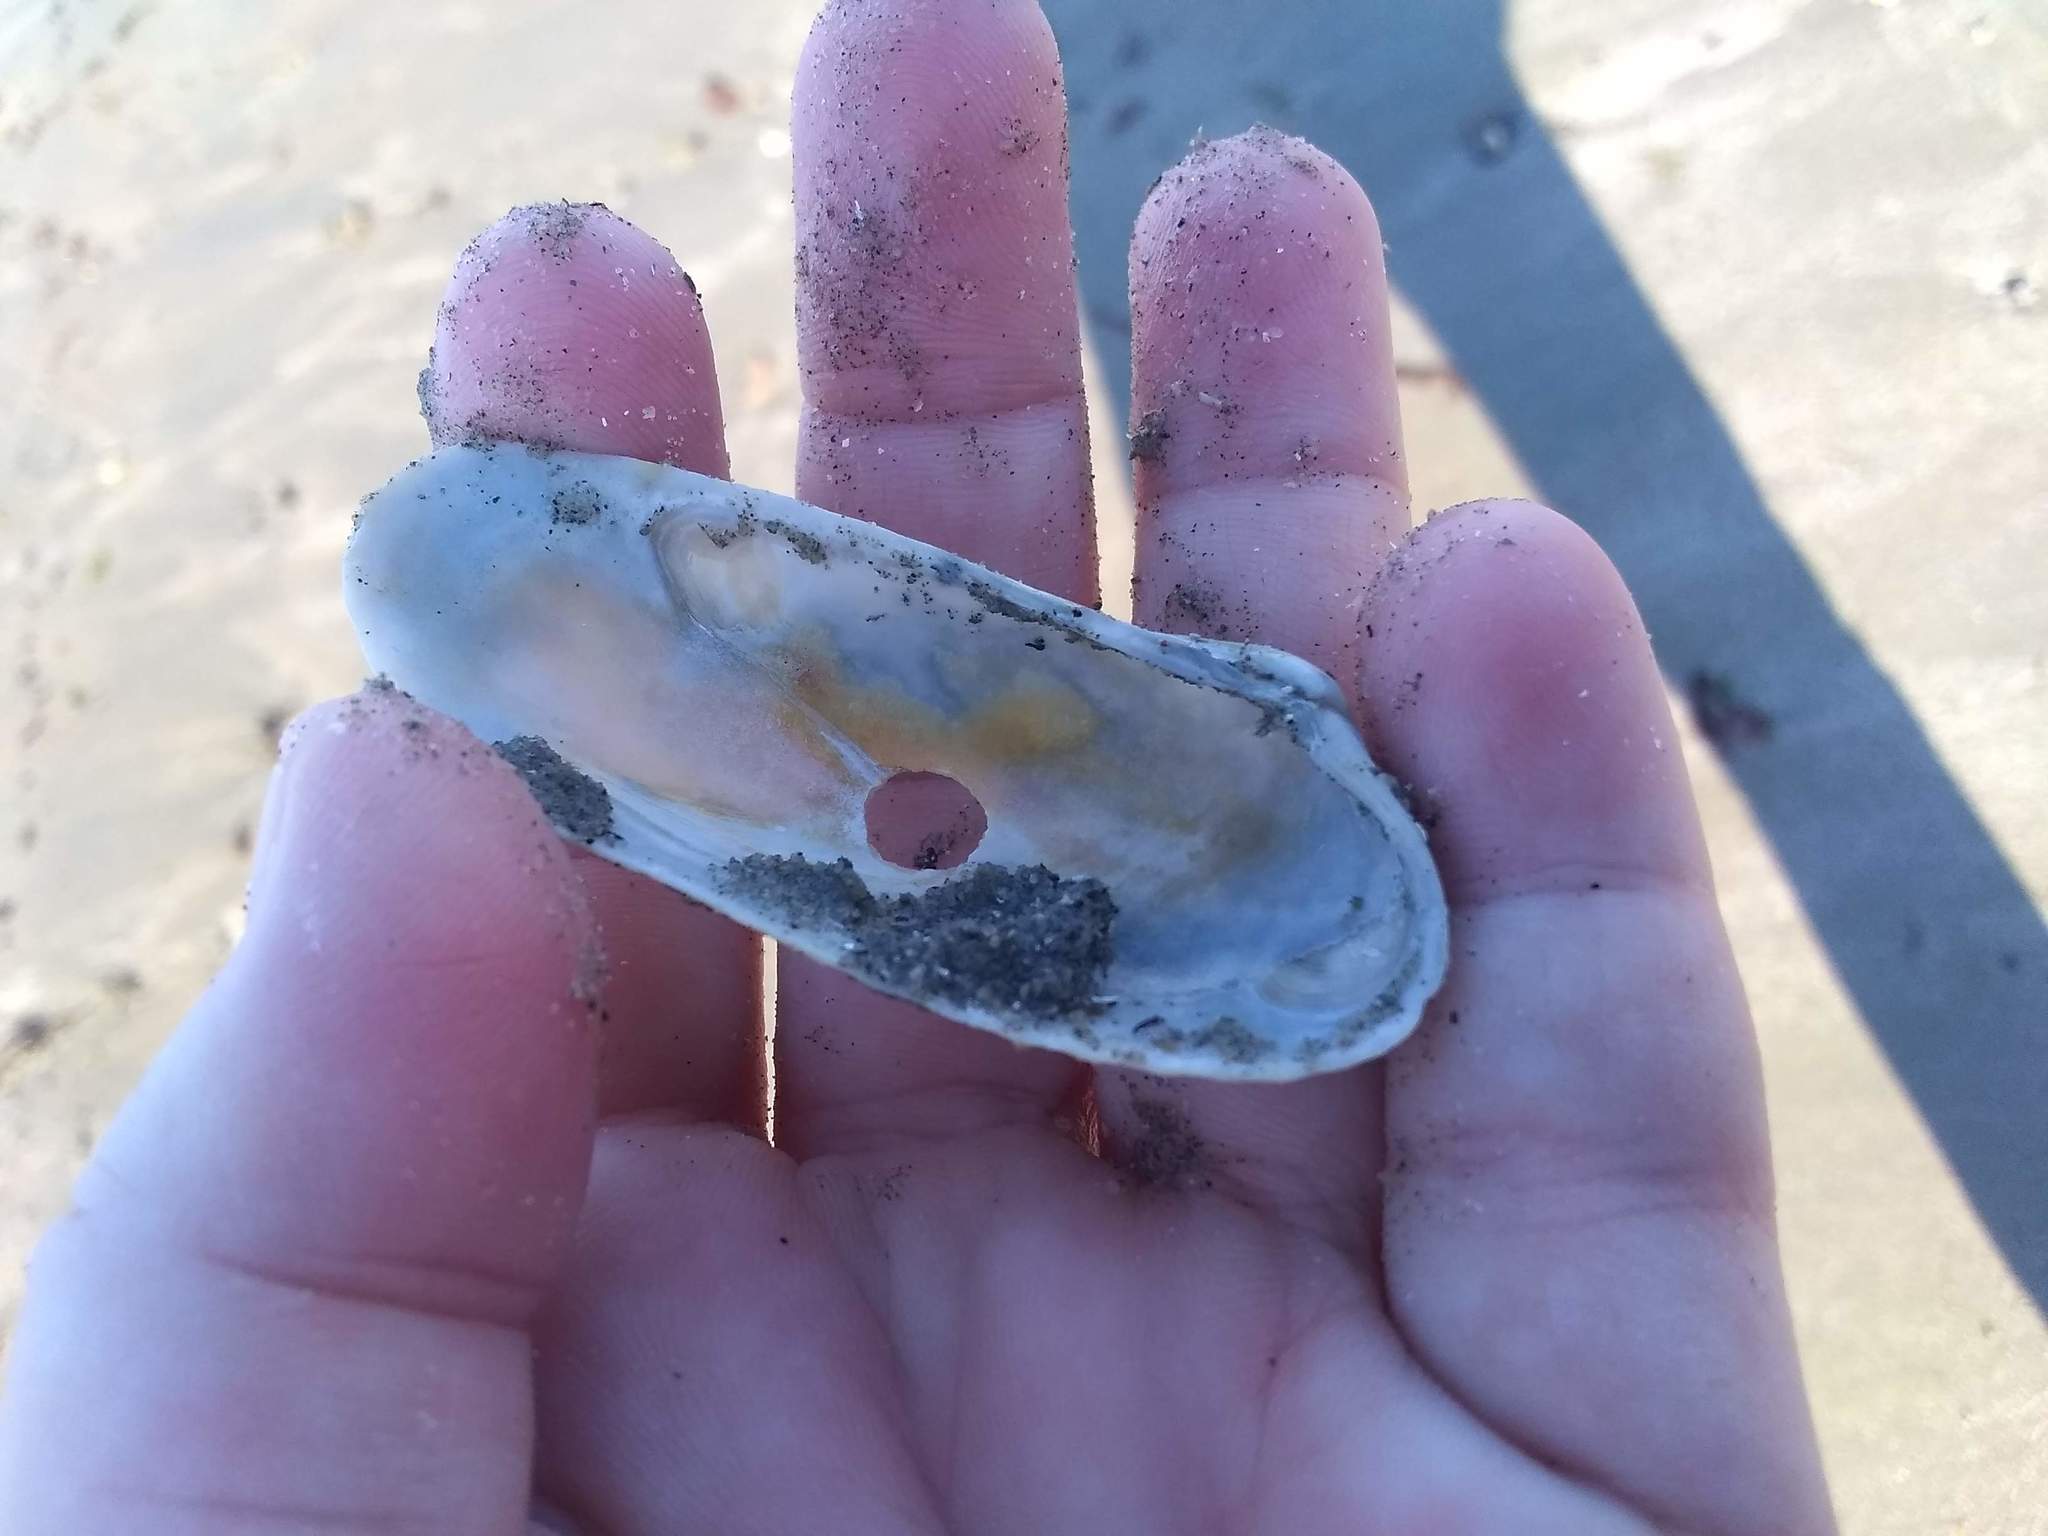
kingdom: Animalia
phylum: Mollusca
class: Bivalvia
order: Venerida
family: Veneridae
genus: Petricolaria
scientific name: Petricolaria pholadiformis
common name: American piddock
